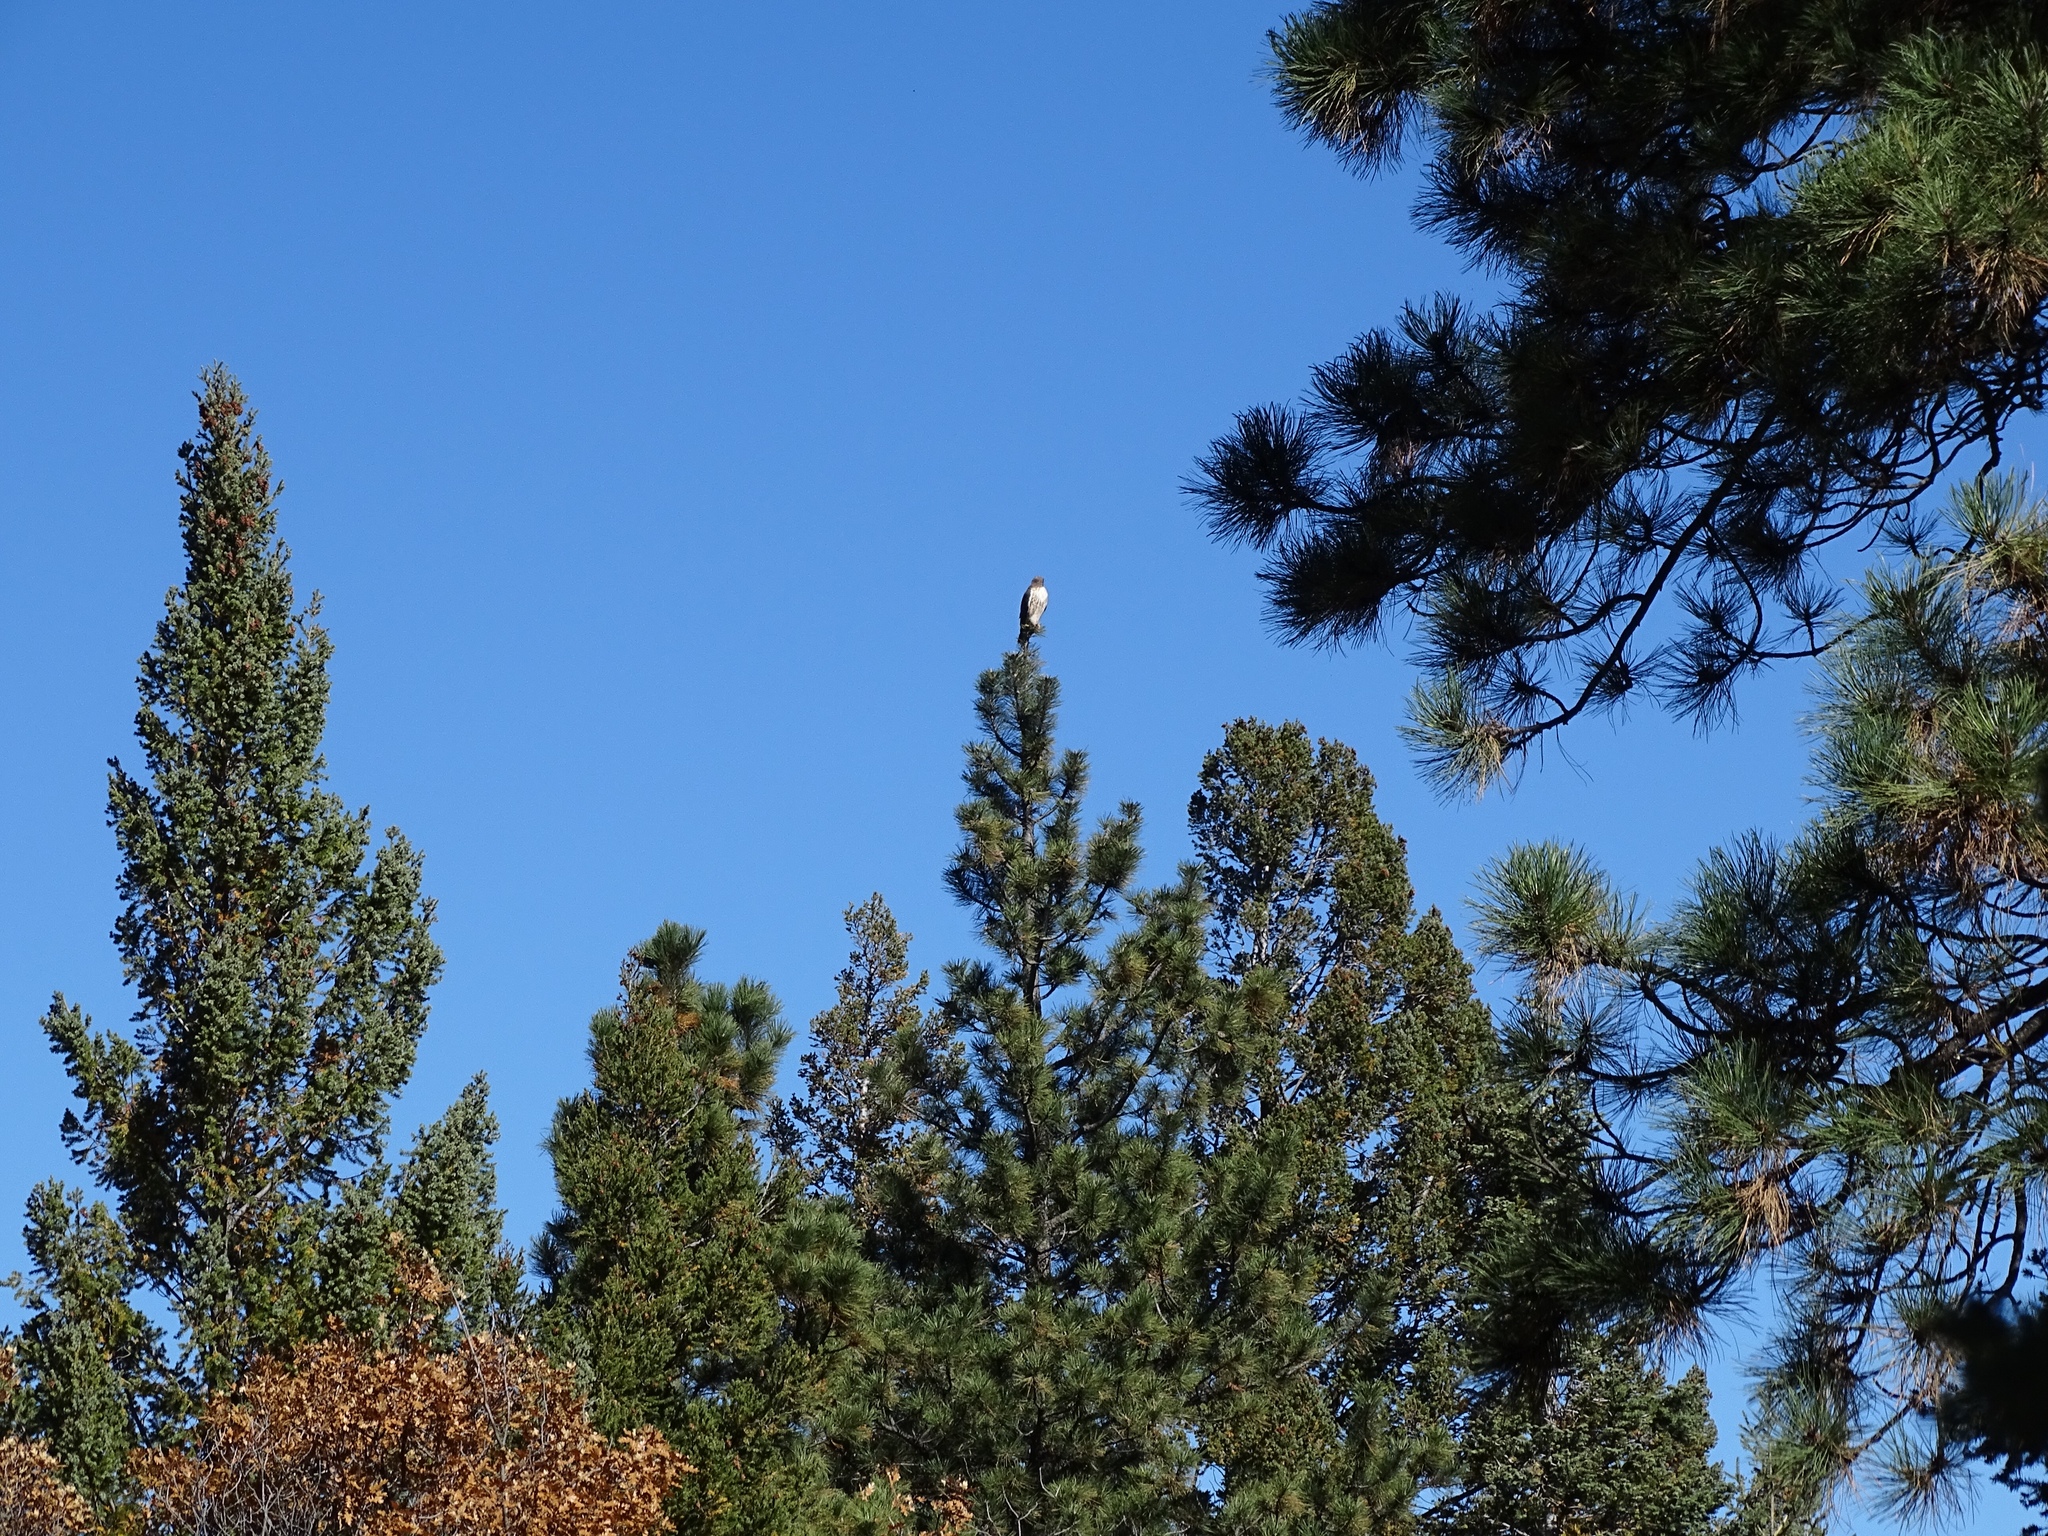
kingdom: Animalia
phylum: Chordata
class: Aves
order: Accipitriformes
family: Accipitridae
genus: Buteo
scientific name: Buteo jamaicensis
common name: Red-tailed hawk
